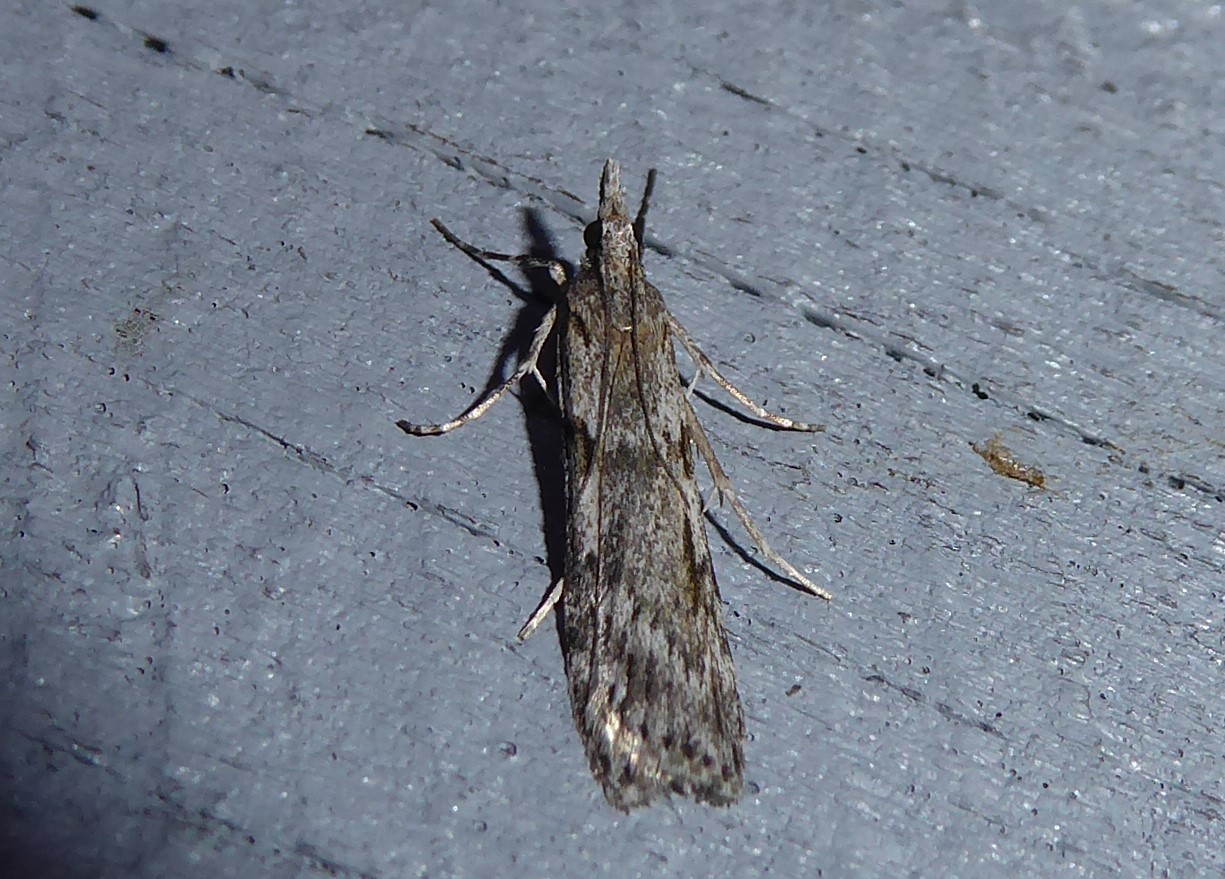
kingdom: Animalia
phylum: Arthropoda
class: Insecta
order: Lepidoptera
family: Crambidae
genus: Scoparia
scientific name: Scoparia halopis
